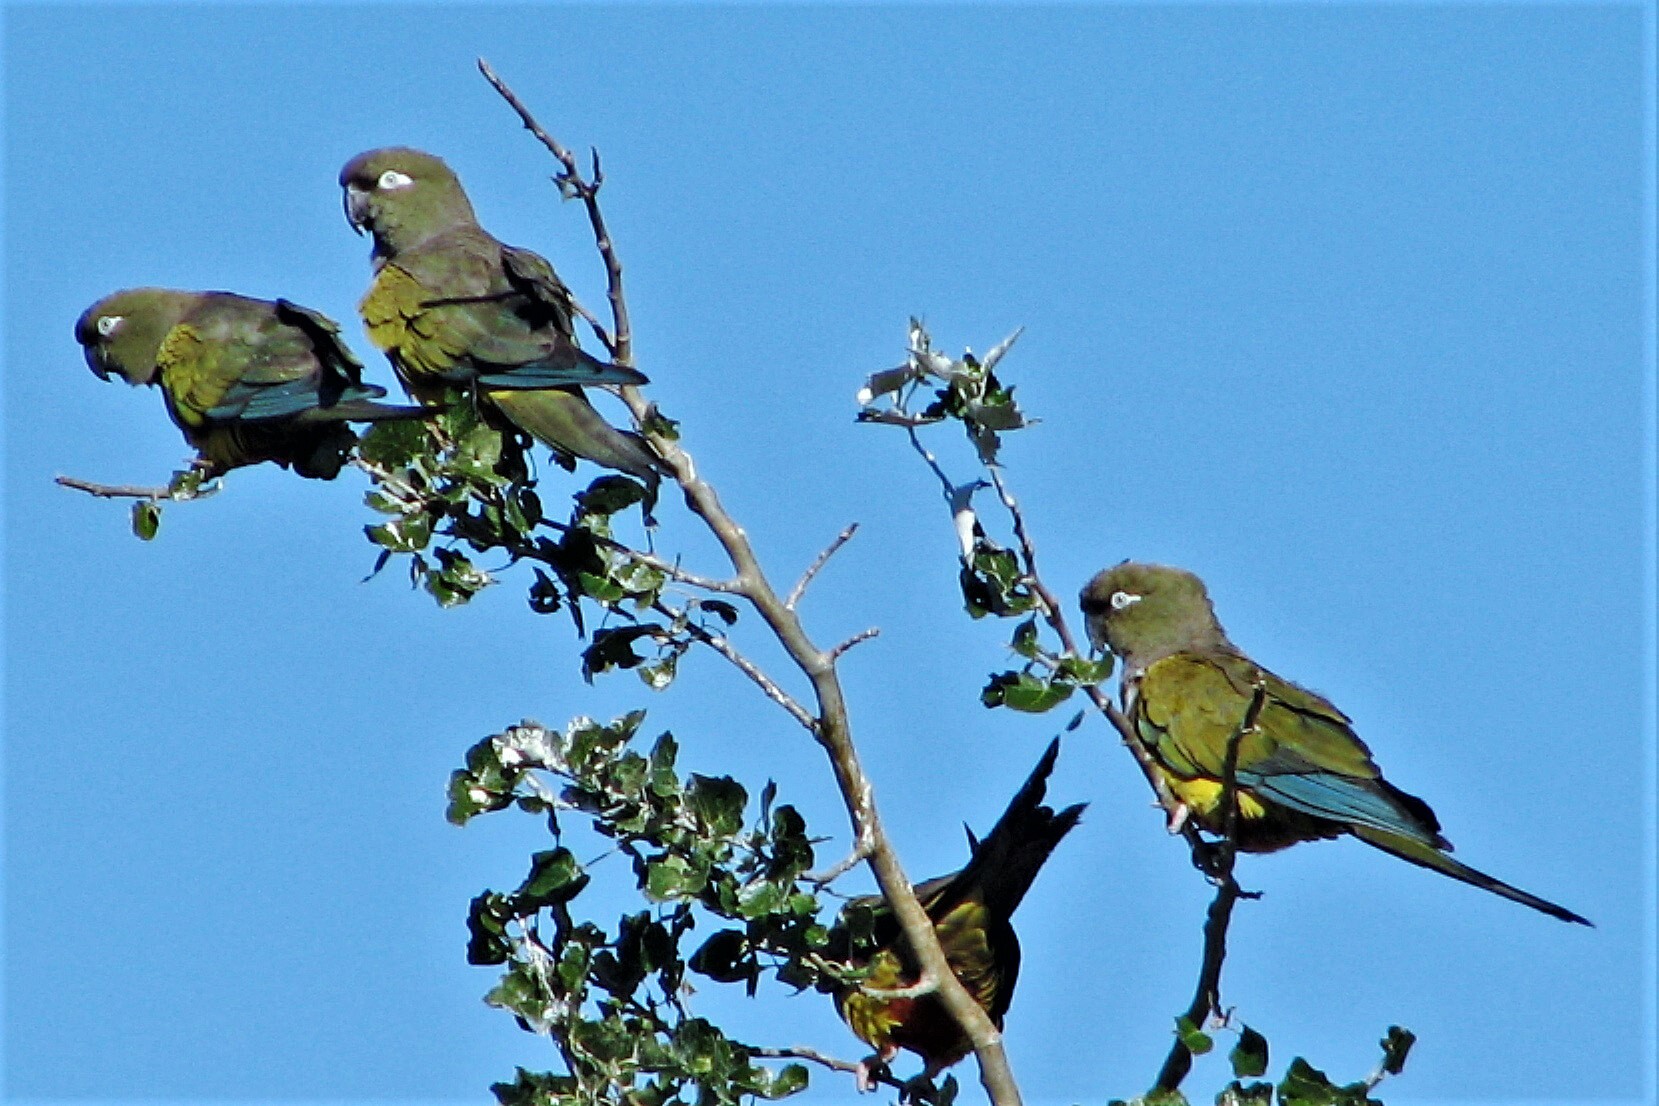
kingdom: Animalia
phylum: Chordata
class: Aves
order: Psittaciformes
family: Psittacidae
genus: Cyanoliseus
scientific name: Cyanoliseus patagonus
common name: Burrowing parrot
